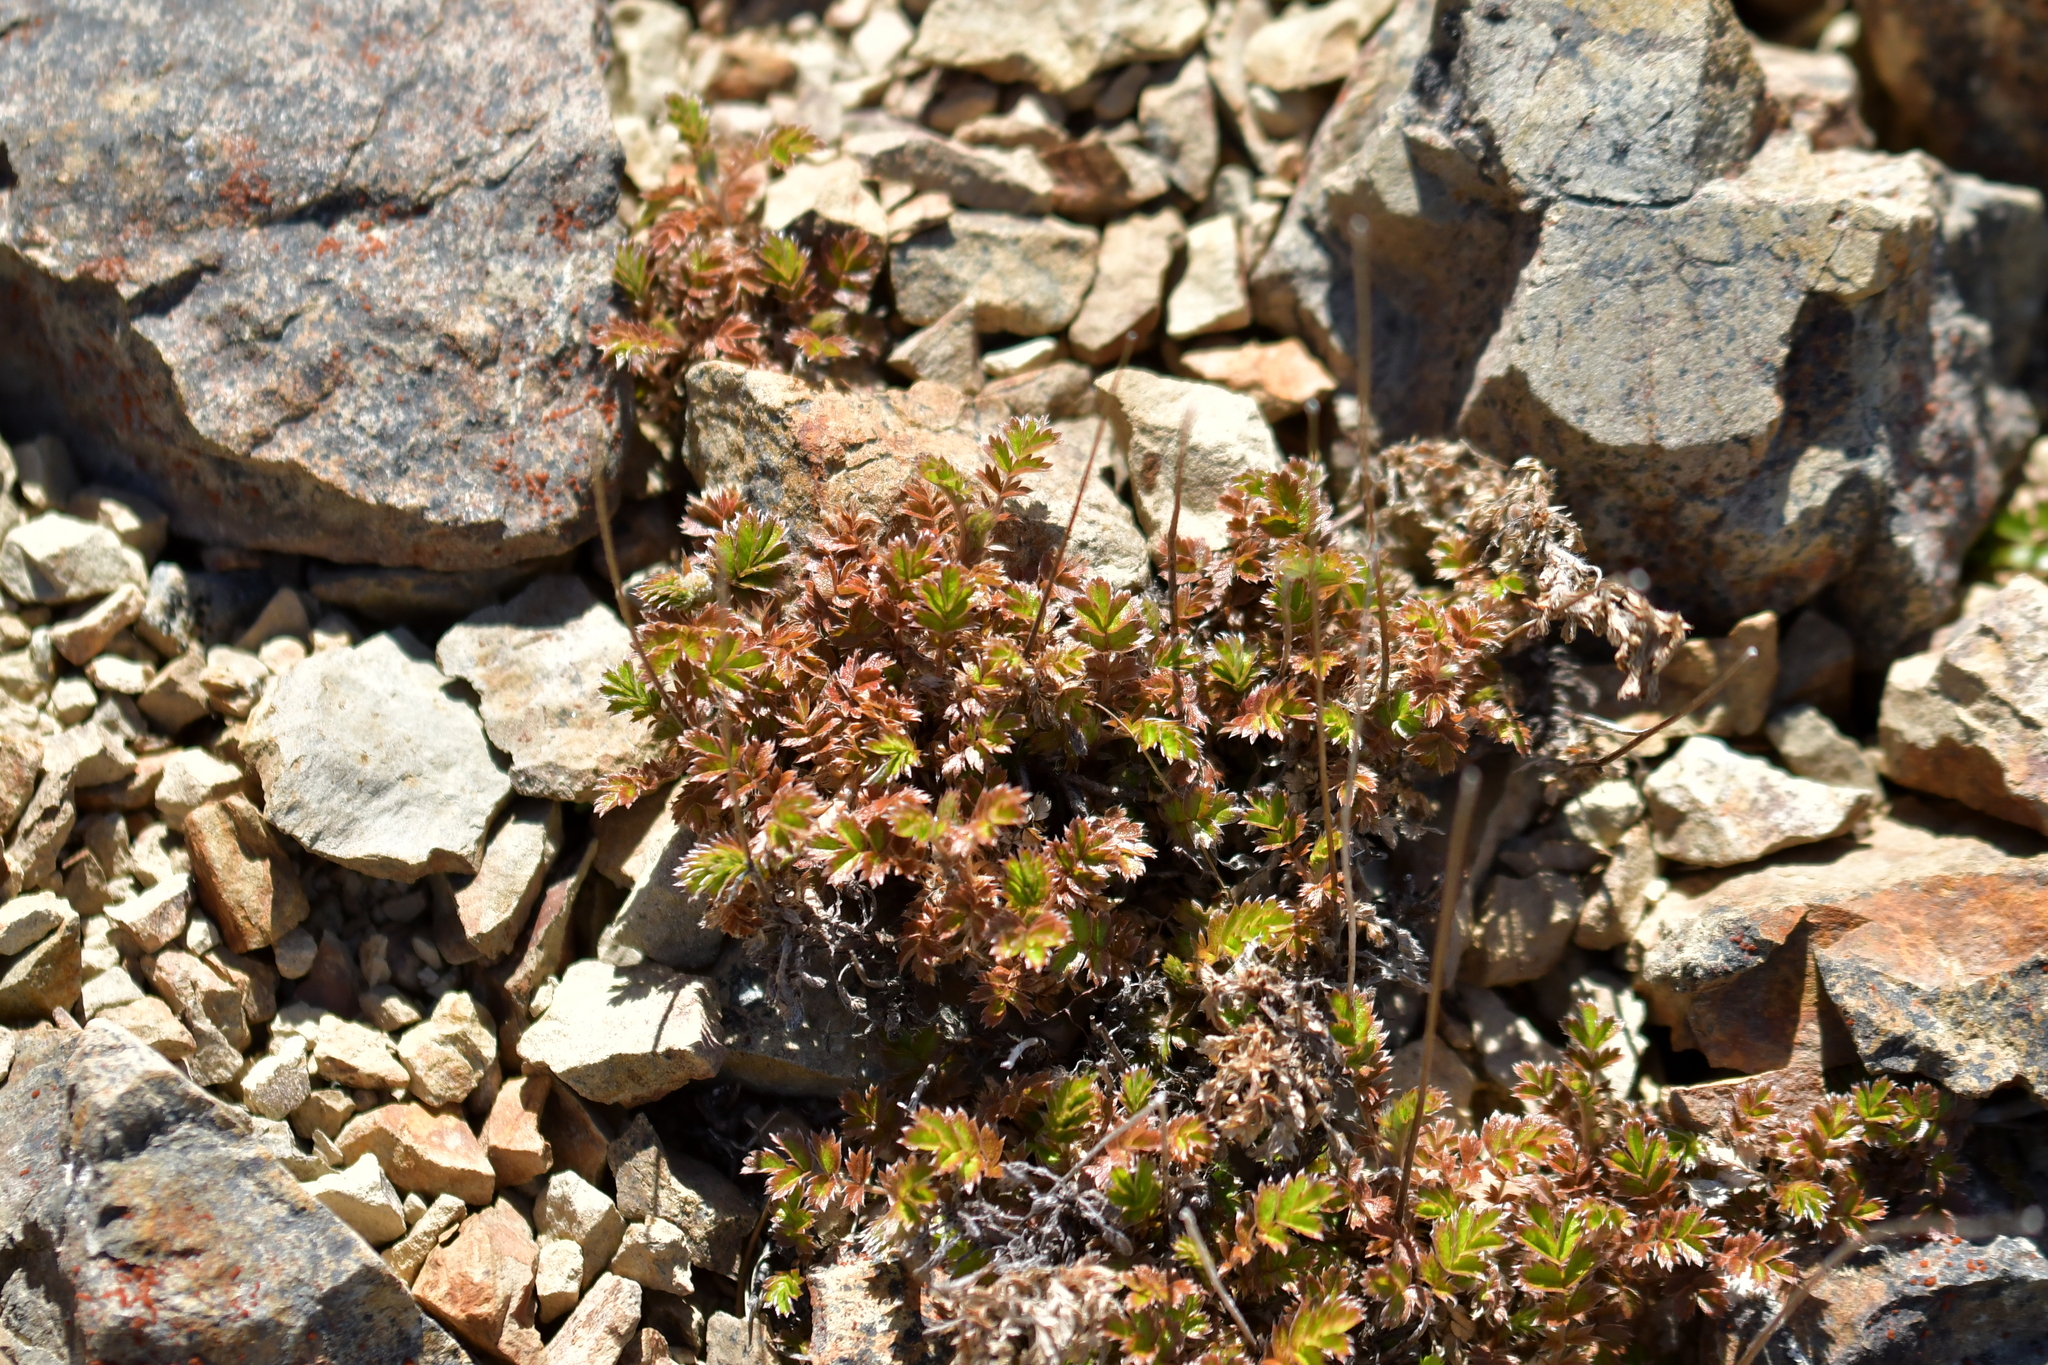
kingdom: Plantae
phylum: Tracheophyta
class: Magnoliopsida
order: Rosales
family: Rosaceae
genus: Acaena
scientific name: Acaena anserinifolia
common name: Bronze pirri-pirri-bur
